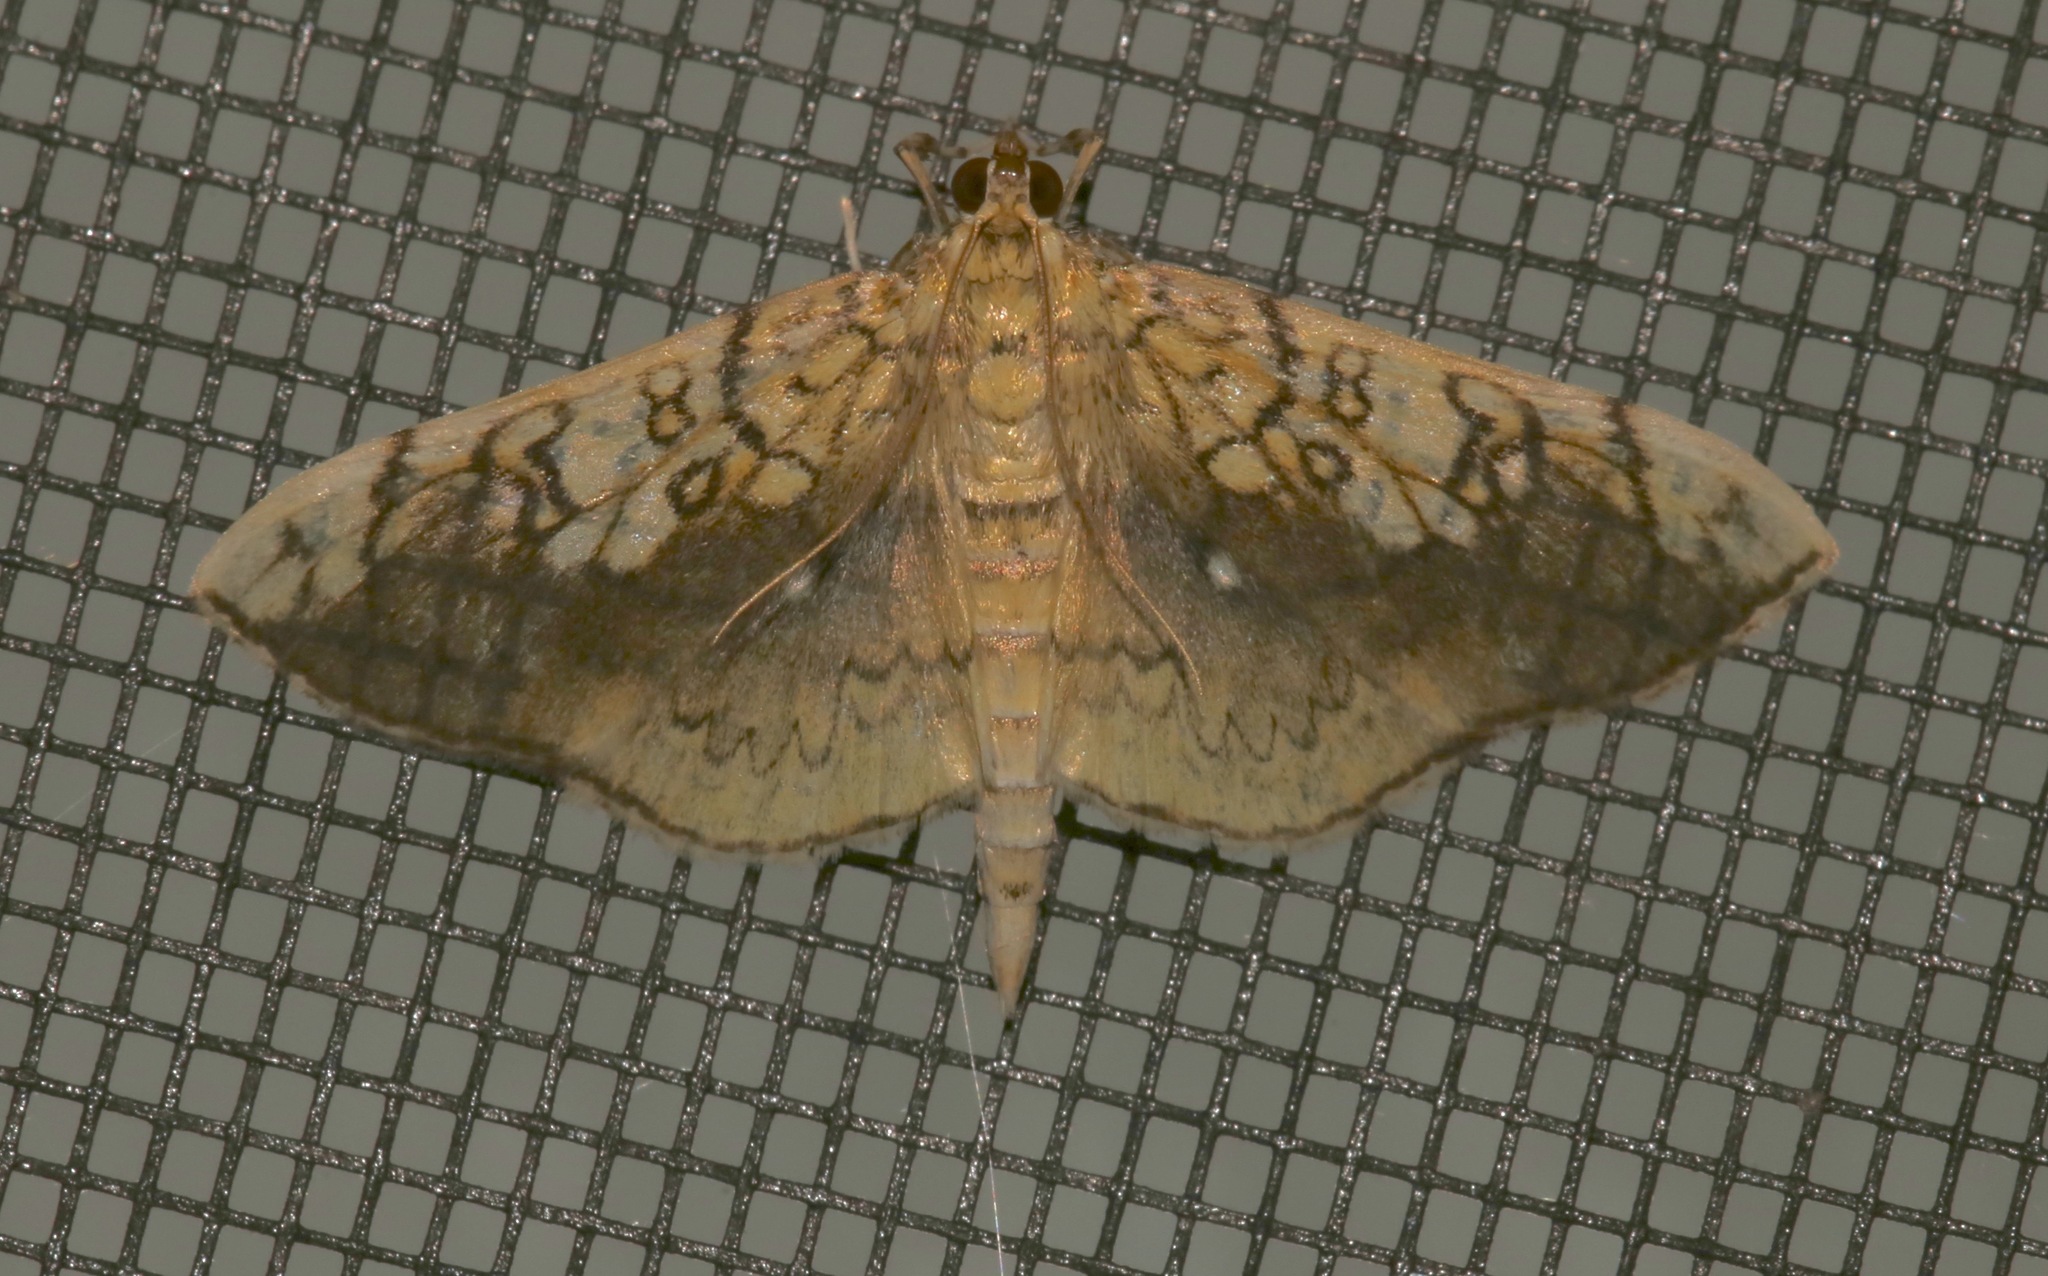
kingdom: Animalia
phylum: Arthropoda
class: Insecta
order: Lepidoptera
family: Crambidae
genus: Pantographa
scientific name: Pantographa limata
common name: Basswood leafroller moth
